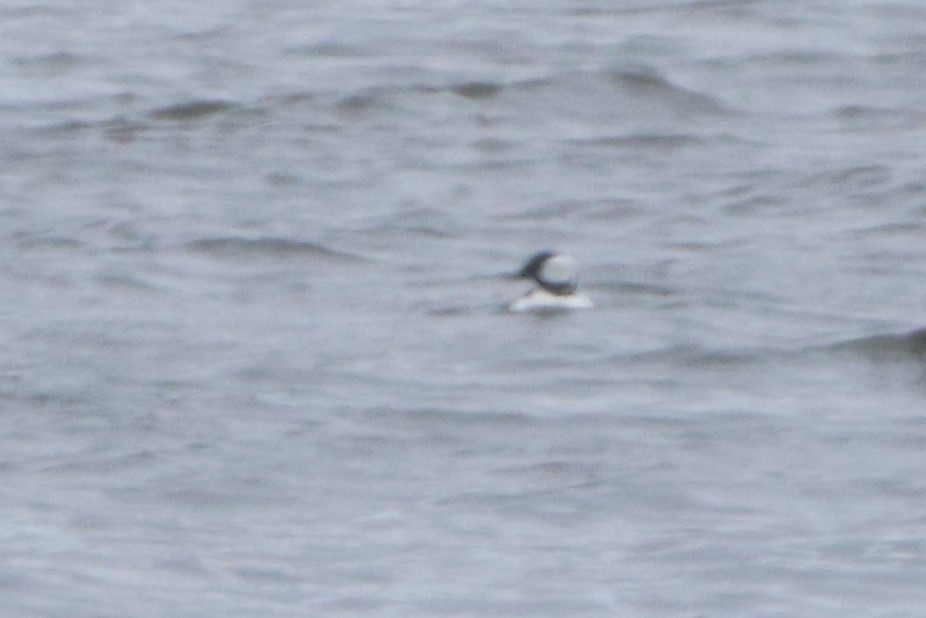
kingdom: Animalia
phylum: Chordata
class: Aves
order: Anseriformes
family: Anatidae
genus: Bucephala
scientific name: Bucephala albeola
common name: Bufflehead
